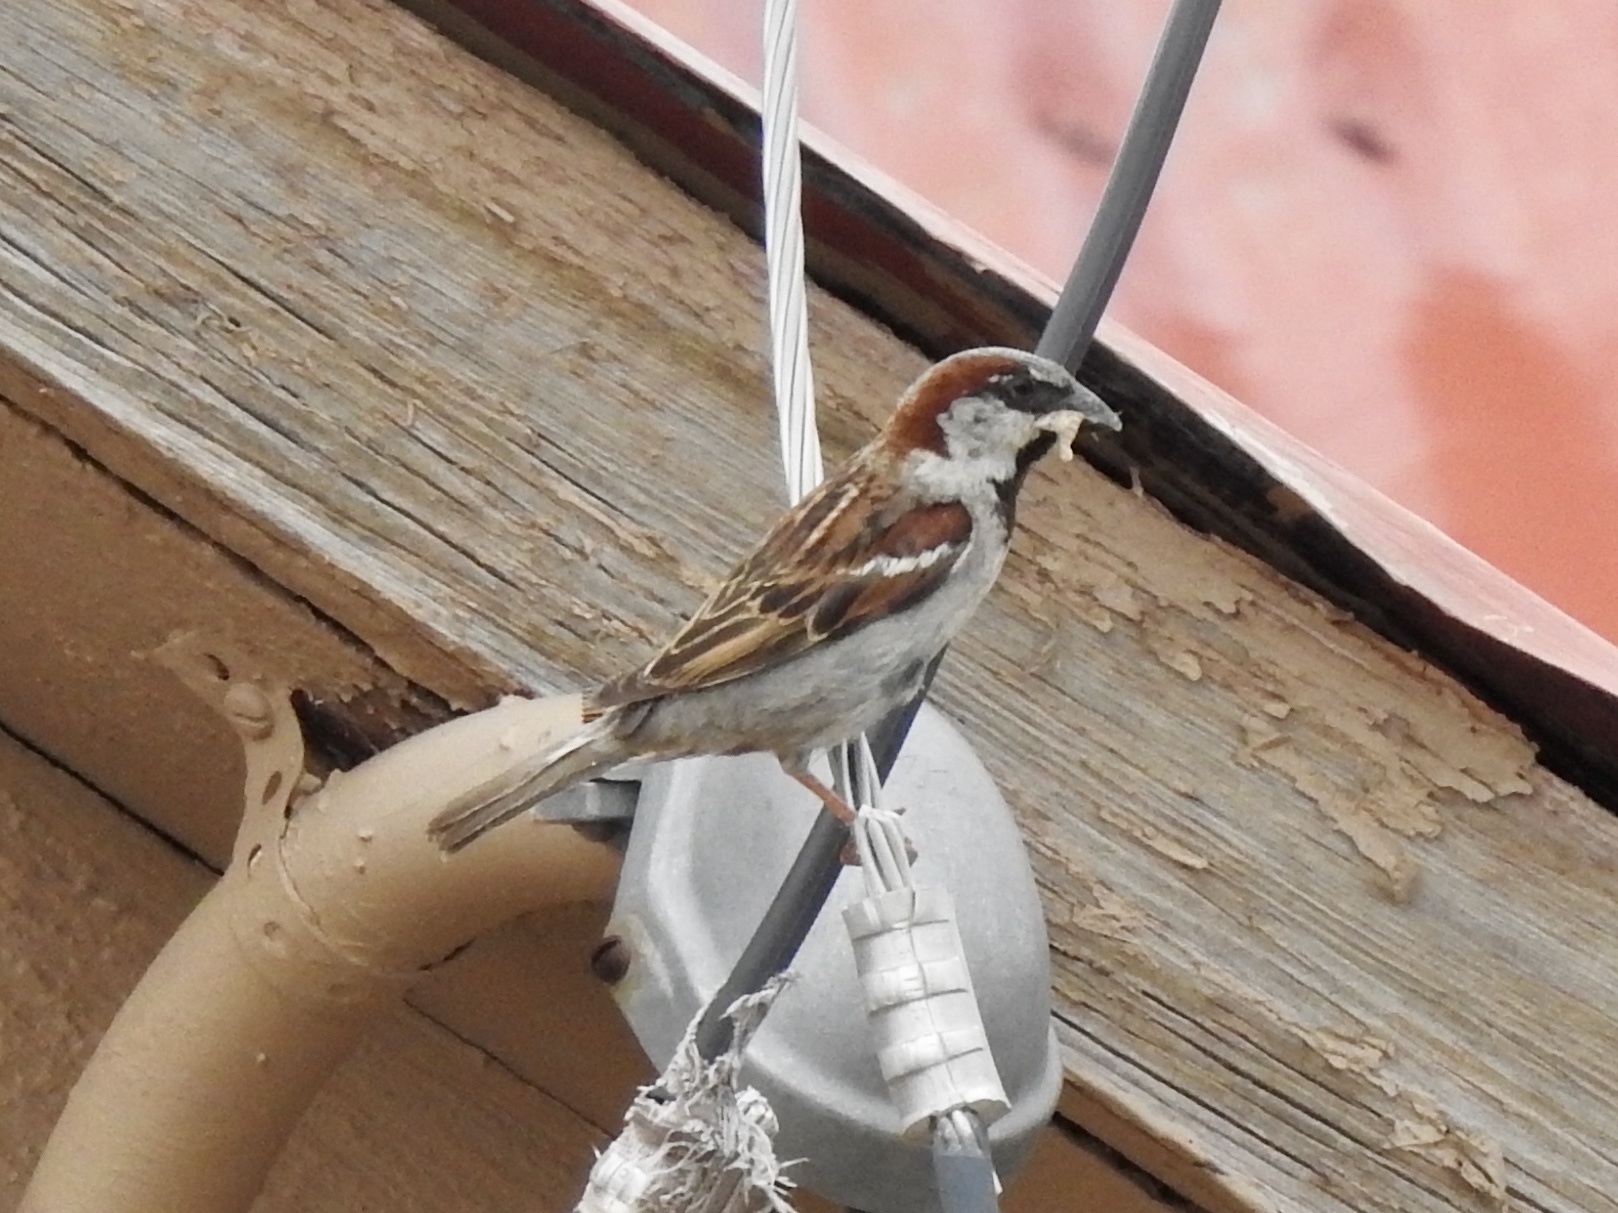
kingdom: Animalia
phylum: Chordata
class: Aves
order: Passeriformes
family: Passeridae
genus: Passer
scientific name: Passer domesticus
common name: House sparrow
